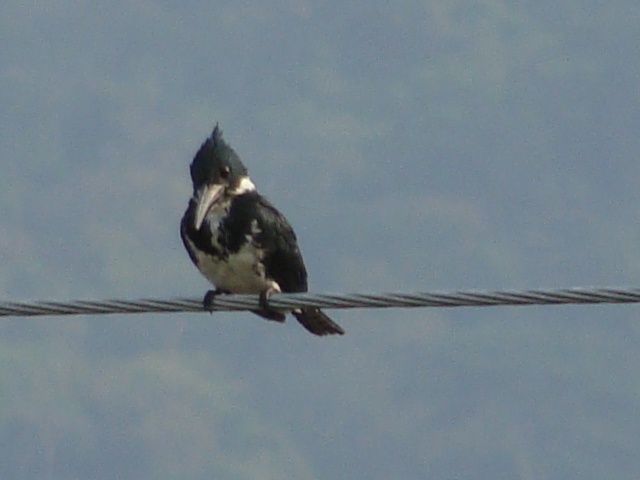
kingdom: Animalia
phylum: Chordata
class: Aves
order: Coraciiformes
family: Alcedinidae
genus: Chloroceryle
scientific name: Chloroceryle amazona
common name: Amazon kingfisher
